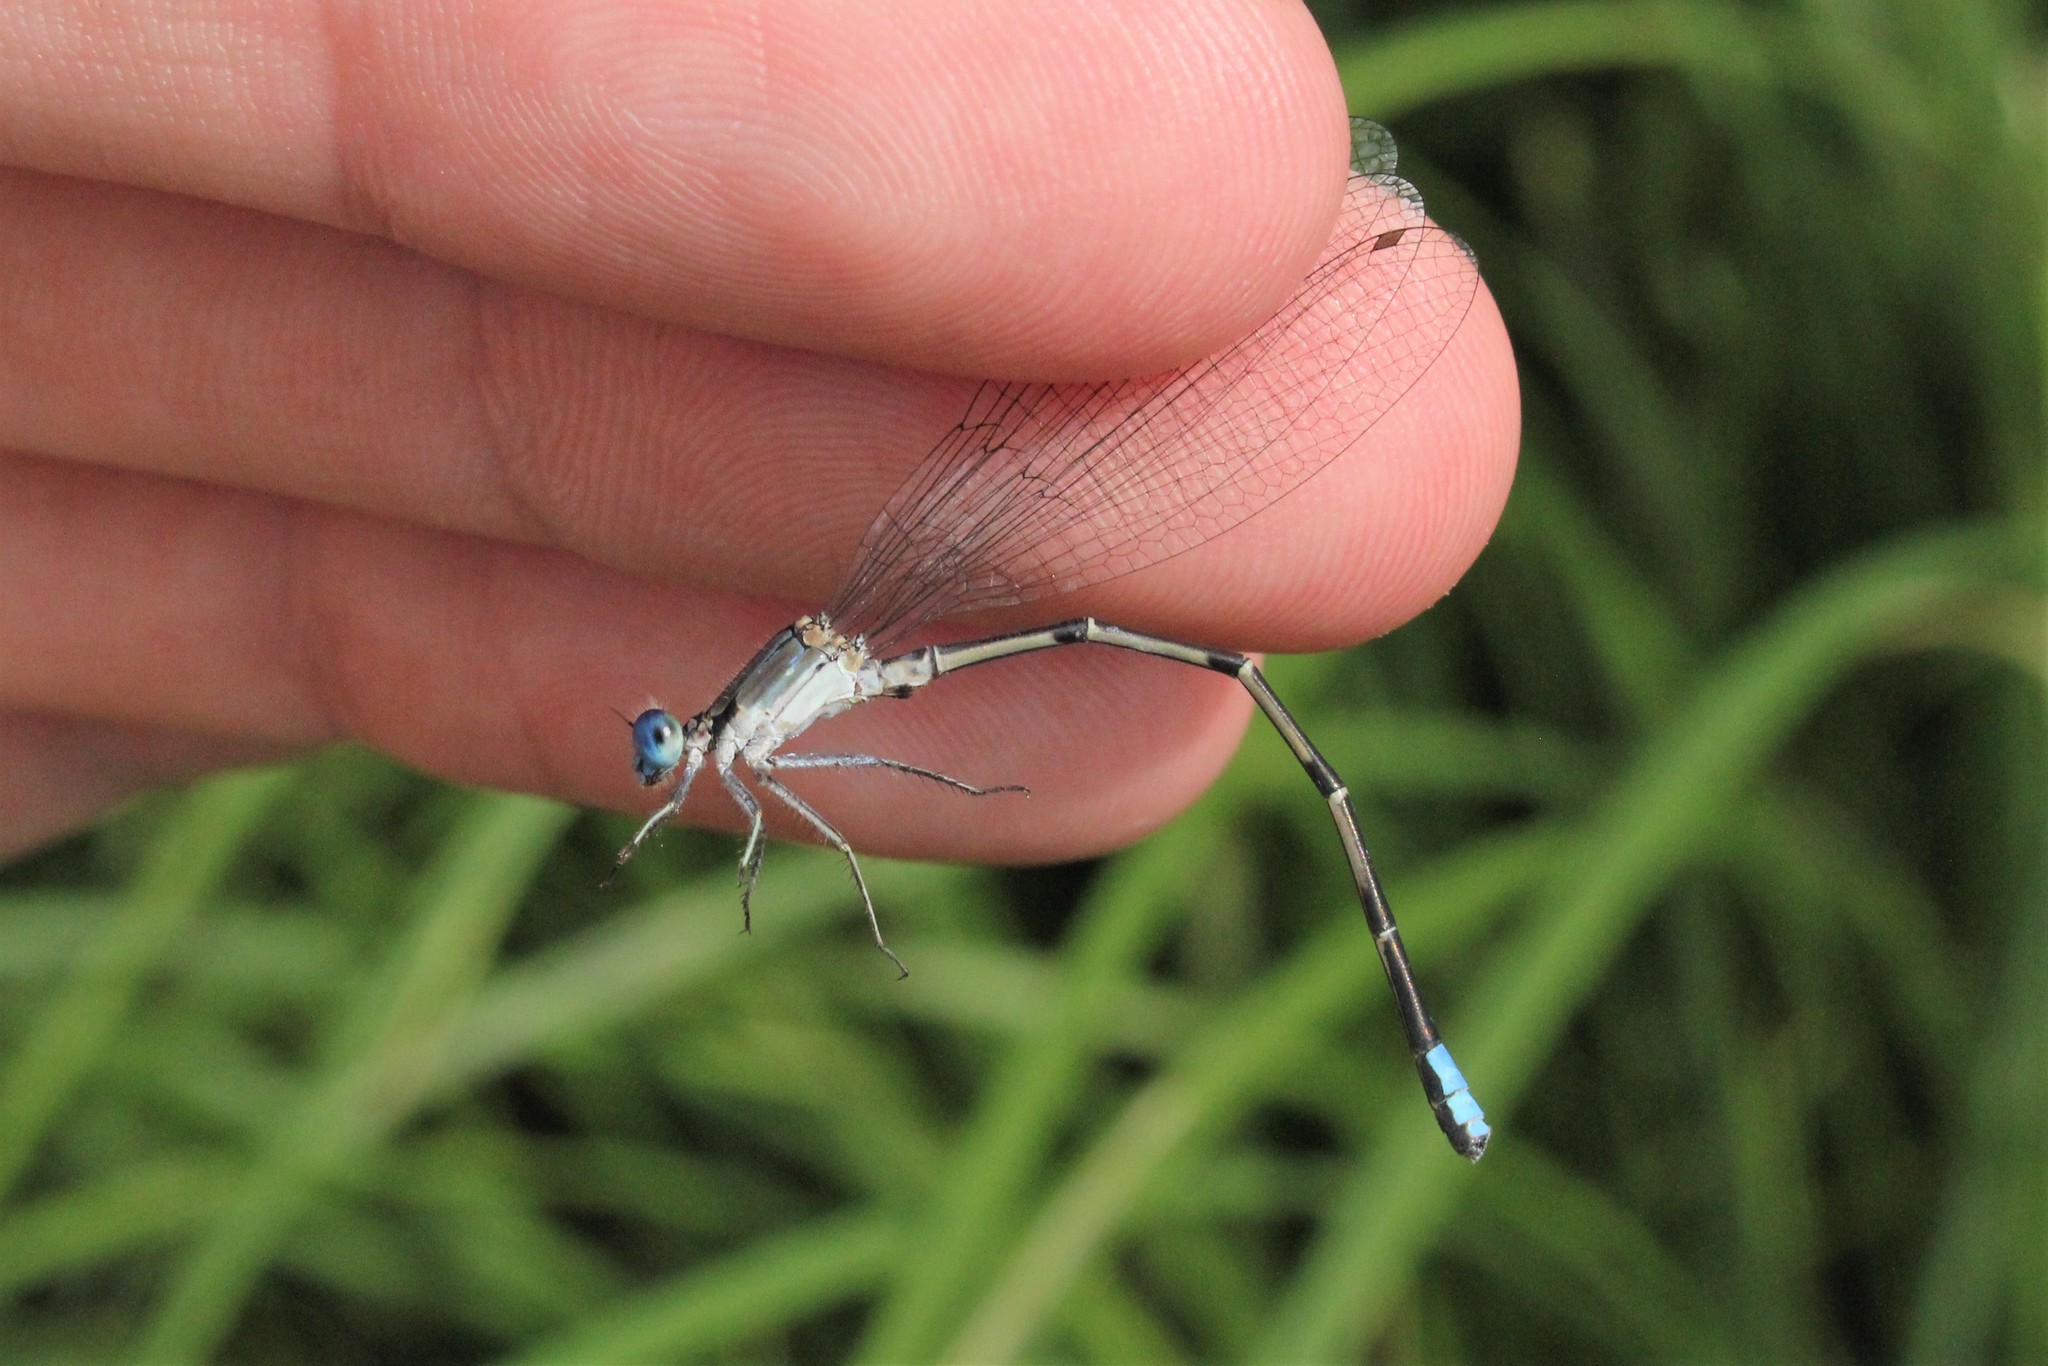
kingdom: Animalia
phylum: Arthropoda
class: Insecta
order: Odonata
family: Coenagrionidae
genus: Argia
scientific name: Argia apicalis
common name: Blue-fronted dancer
